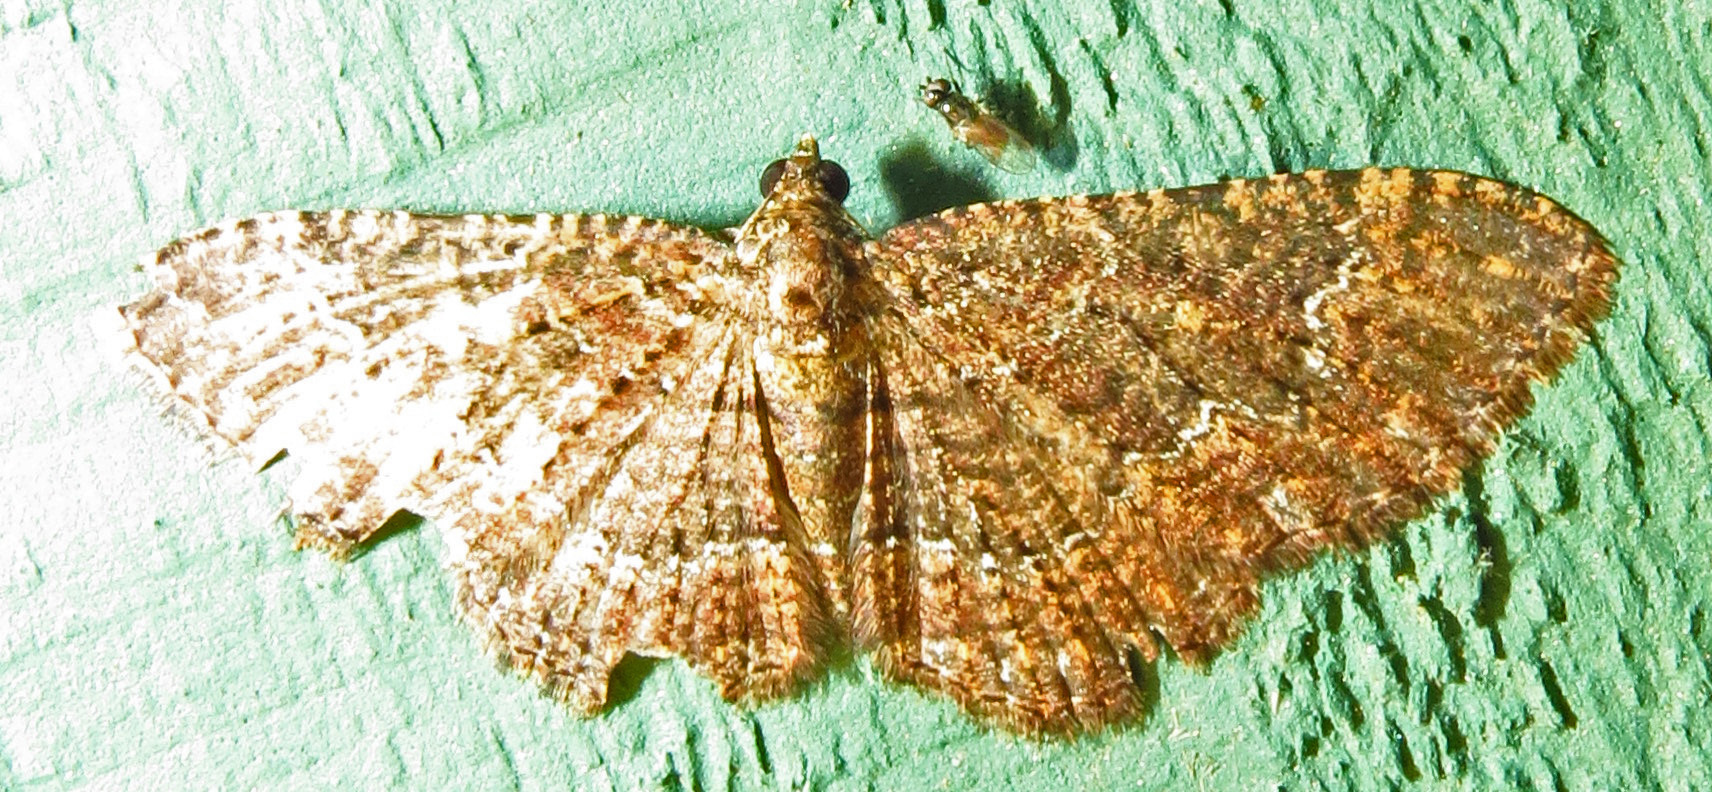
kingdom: Animalia
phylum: Arthropoda
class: Insecta
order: Lepidoptera
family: Geometridae
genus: Disclisioprocta
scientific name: Disclisioprocta stellata
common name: Somber carpet
